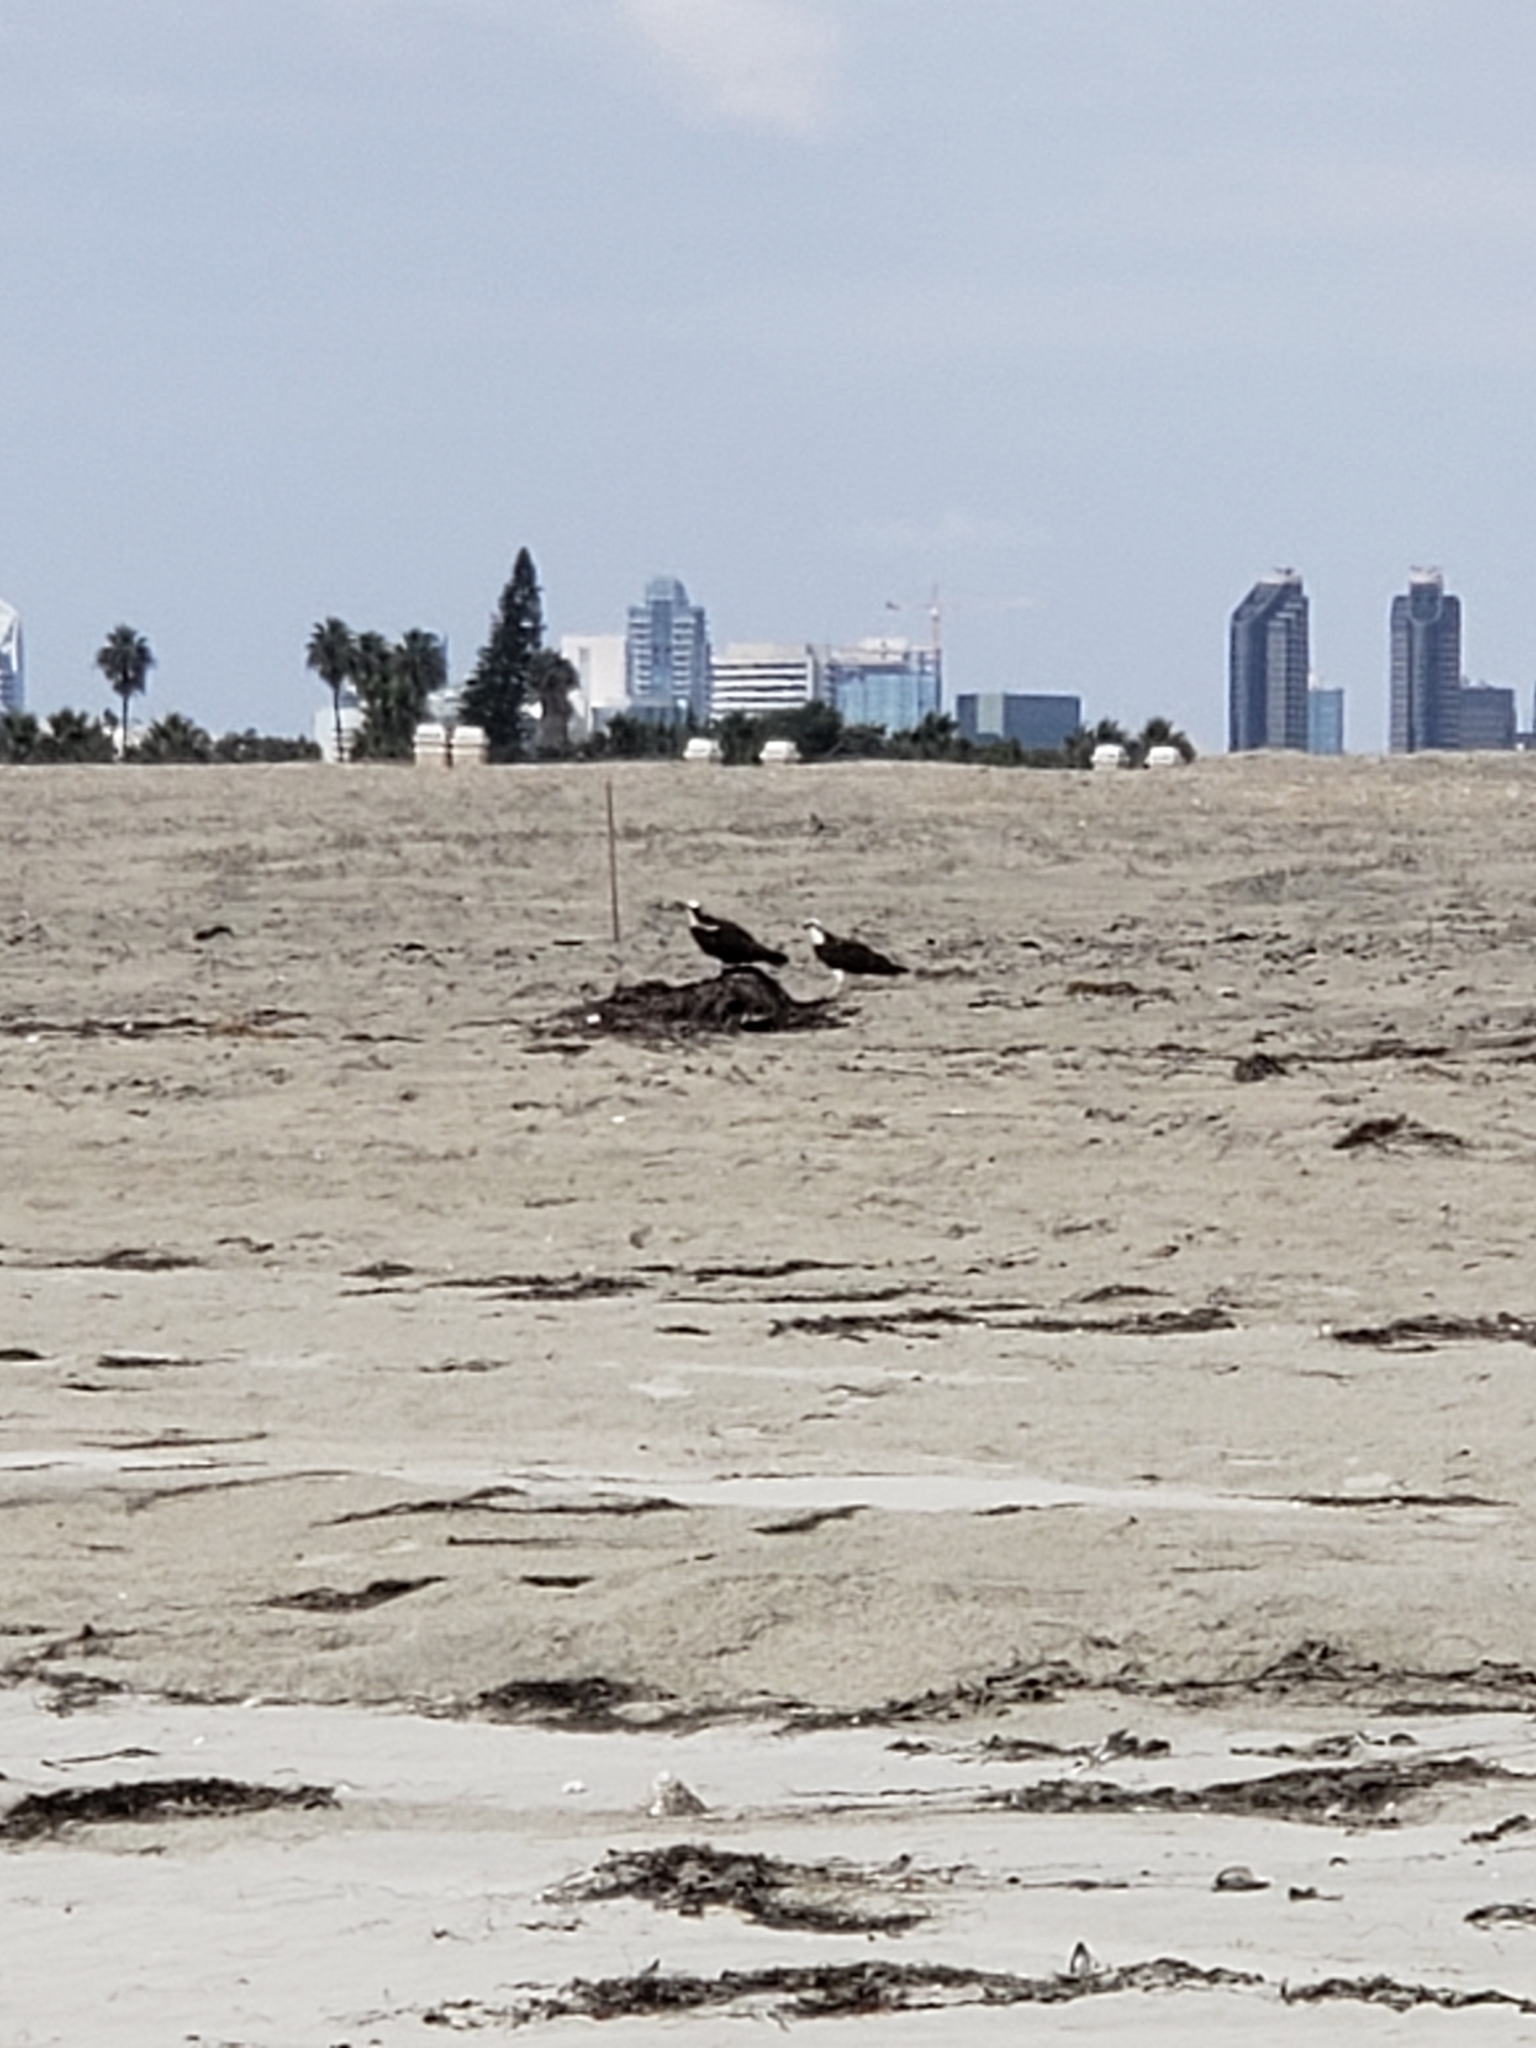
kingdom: Animalia
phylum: Chordata
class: Aves
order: Accipitriformes
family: Pandionidae
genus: Pandion
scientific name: Pandion haliaetus
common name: Osprey
